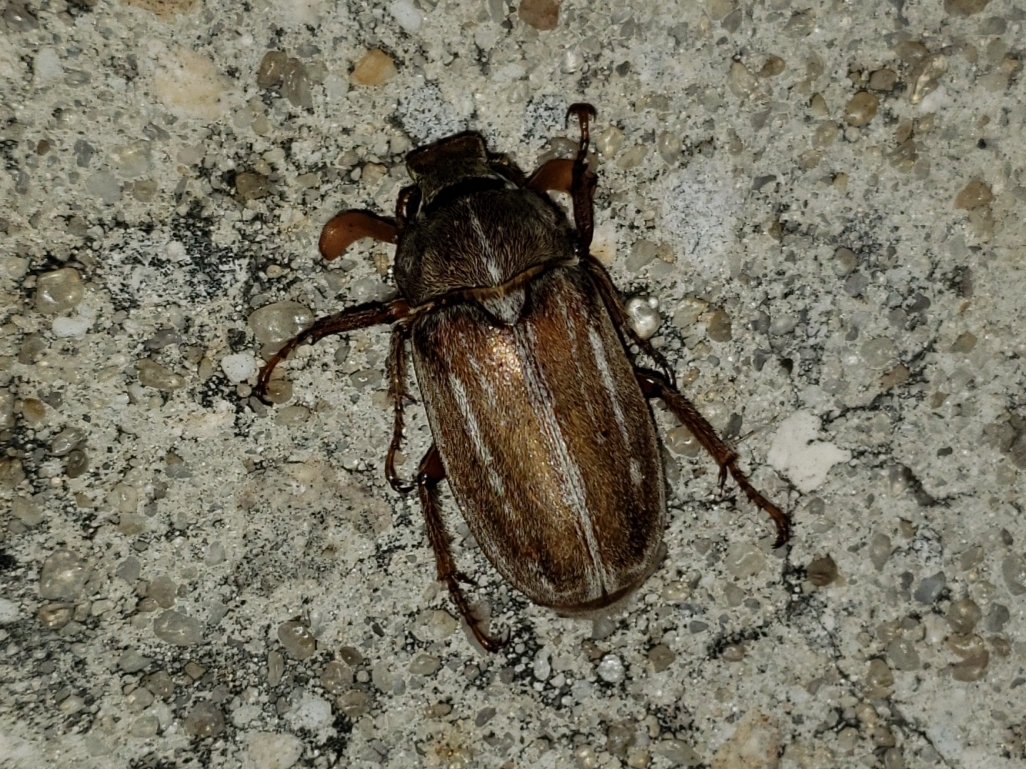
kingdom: Animalia
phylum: Arthropoda
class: Insecta
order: Coleoptera
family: Scarabaeidae
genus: Polyphylla
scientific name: Polyphylla occidentalis
